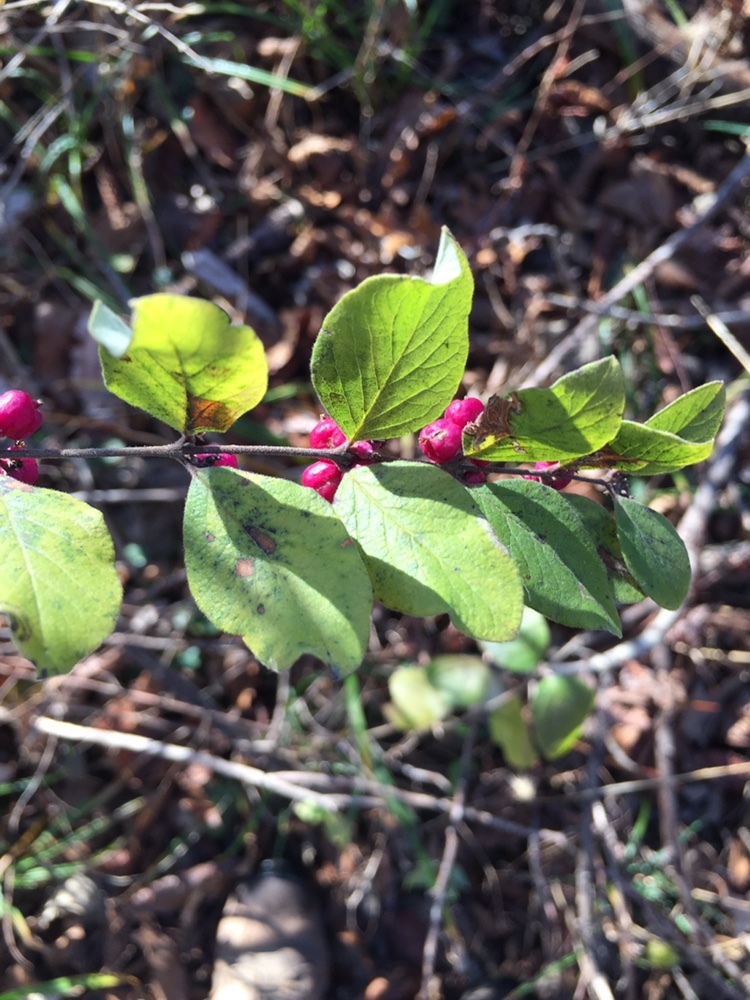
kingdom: Plantae
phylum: Tracheophyta
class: Magnoliopsida
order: Dipsacales
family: Caprifoliaceae
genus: Symphoricarpos
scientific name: Symphoricarpos orbiculatus
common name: Coralberry
